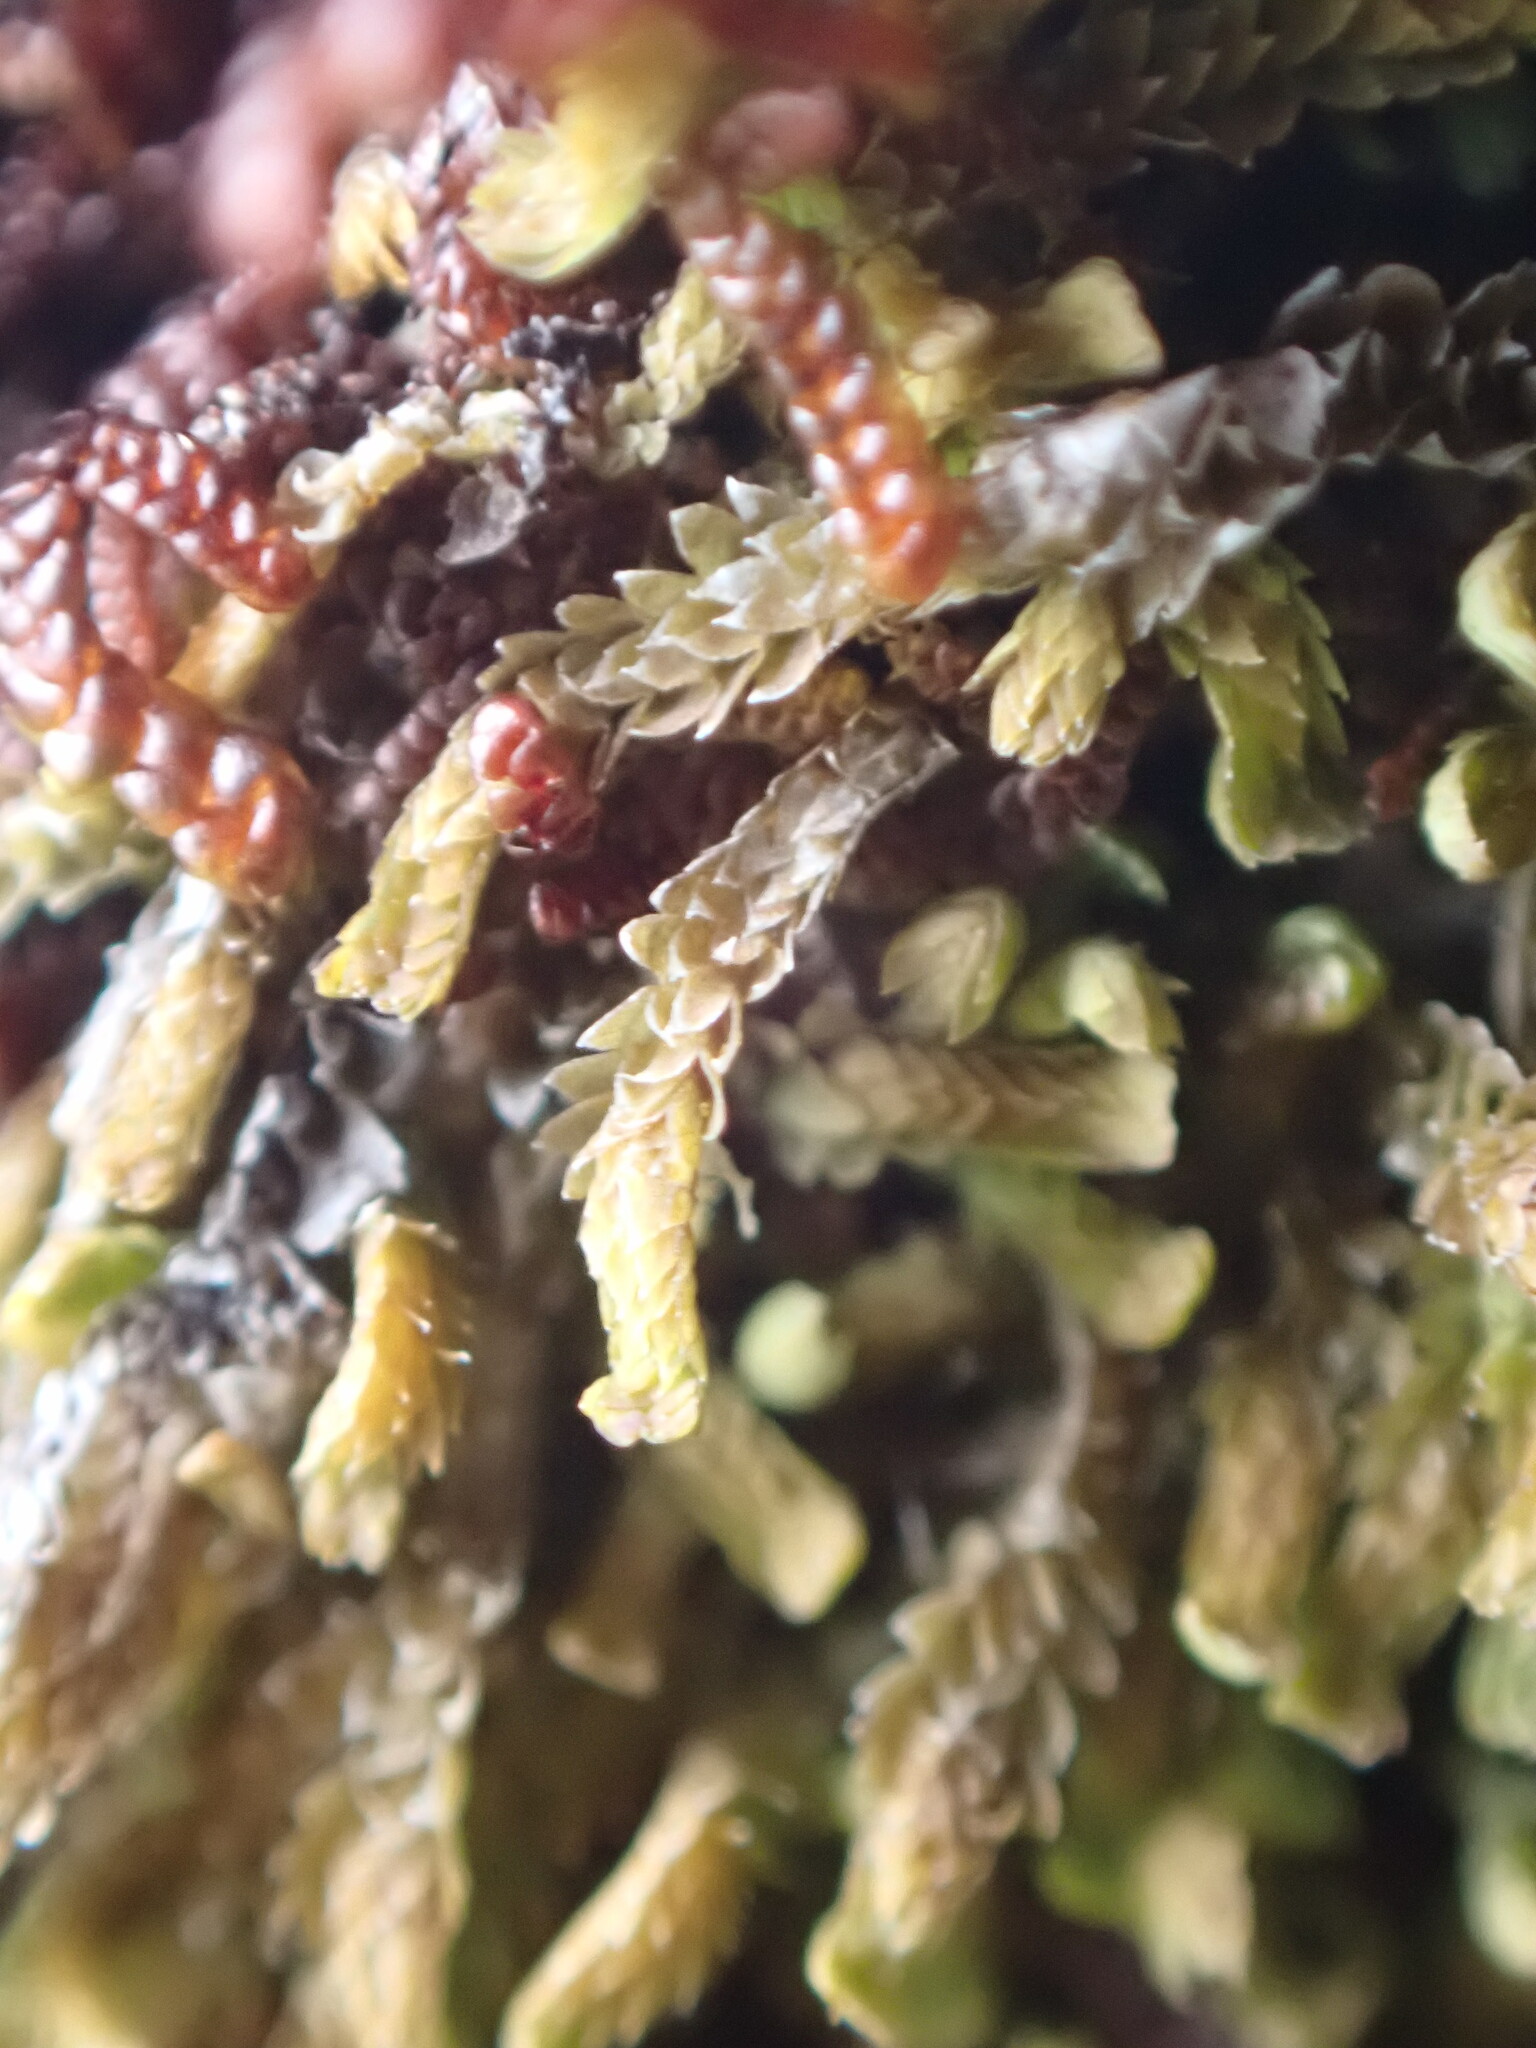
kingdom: Plantae
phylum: Marchantiophyta
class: Jungermanniopsida
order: Jungermanniales
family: Scapaniaceae
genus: Douinia
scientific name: Douinia ovata
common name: Waxy earwort
